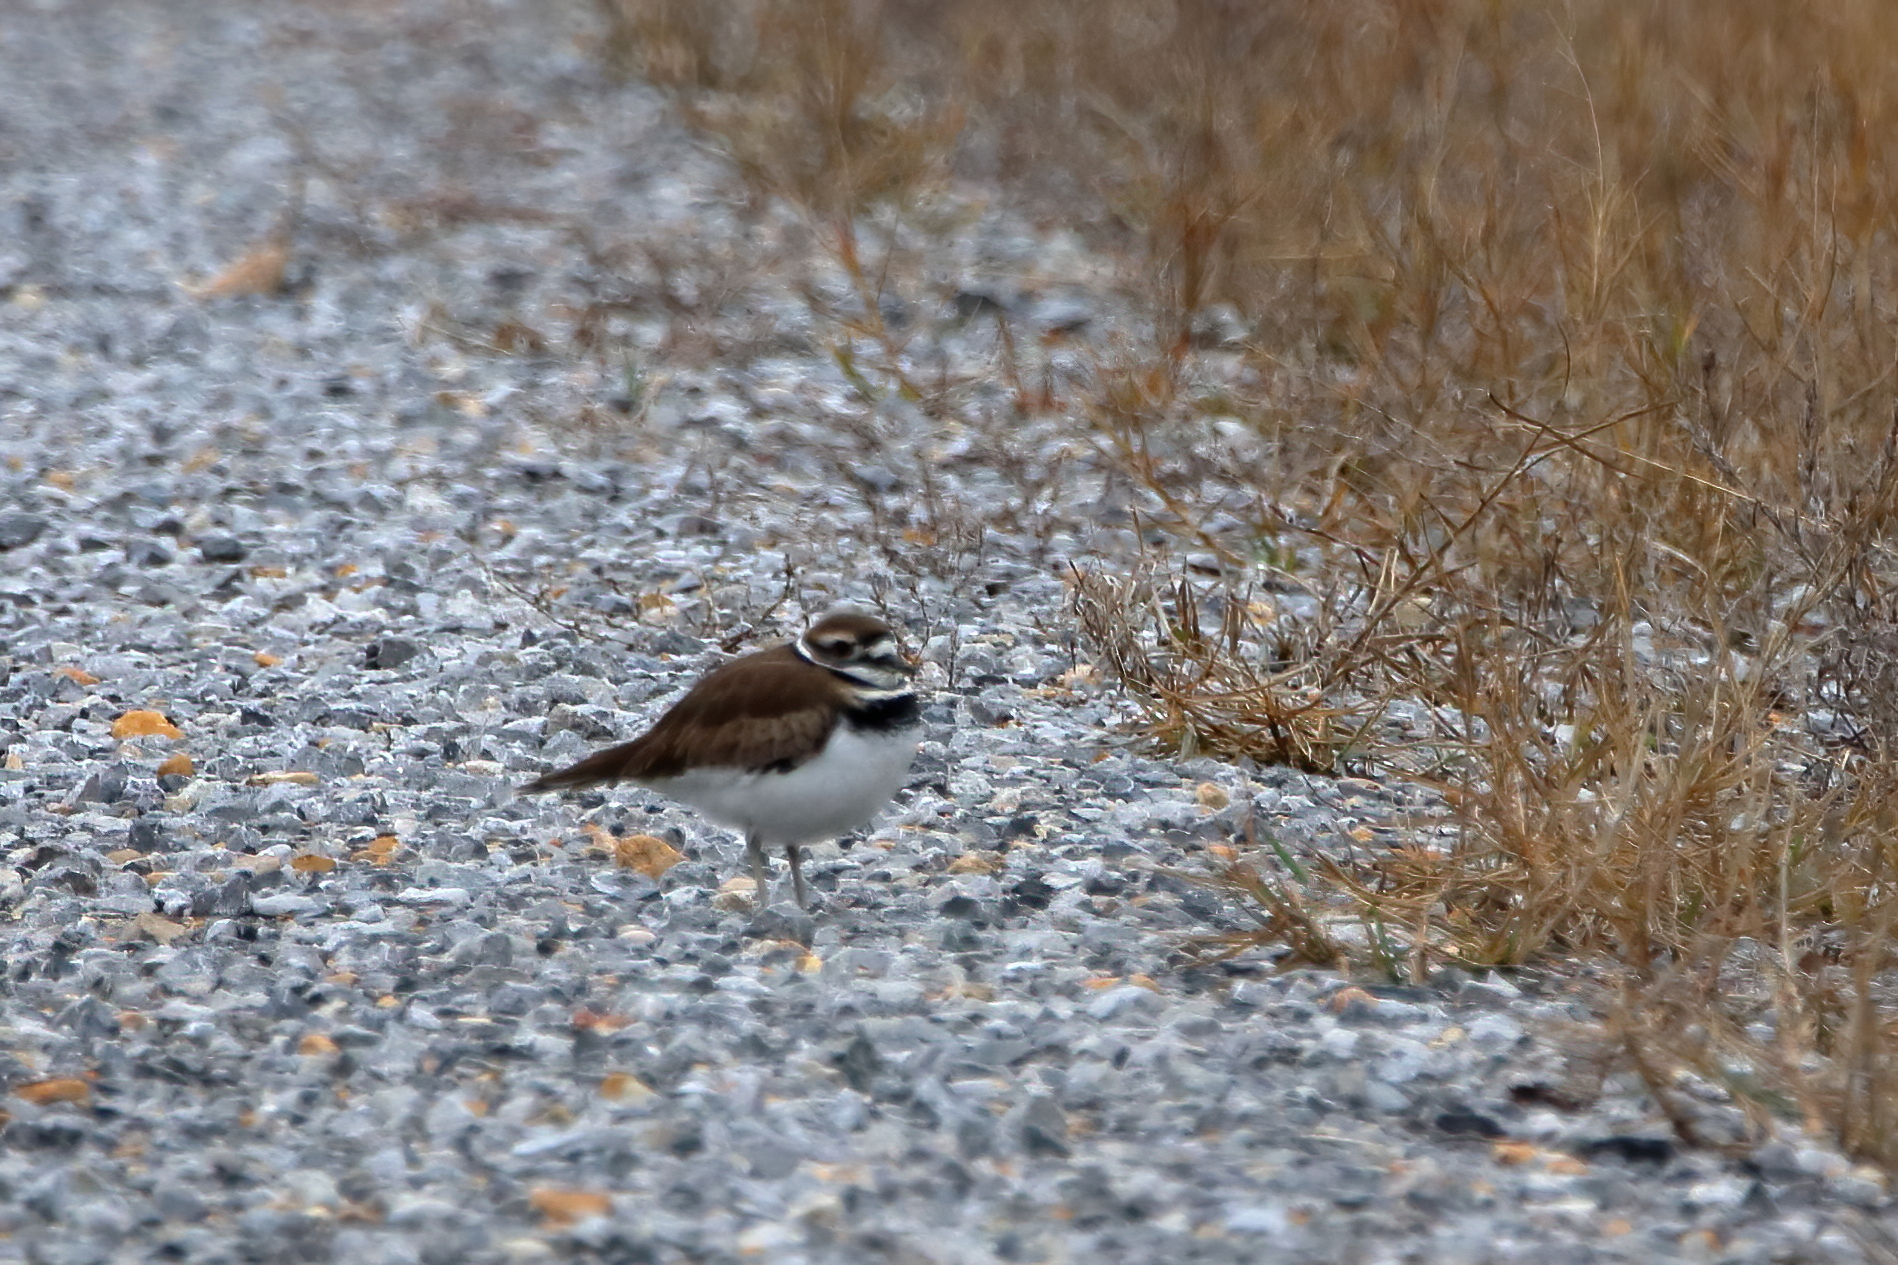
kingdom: Animalia
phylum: Chordata
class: Aves
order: Charadriiformes
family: Charadriidae
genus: Charadrius
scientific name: Charadrius vociferus
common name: Killdeer
